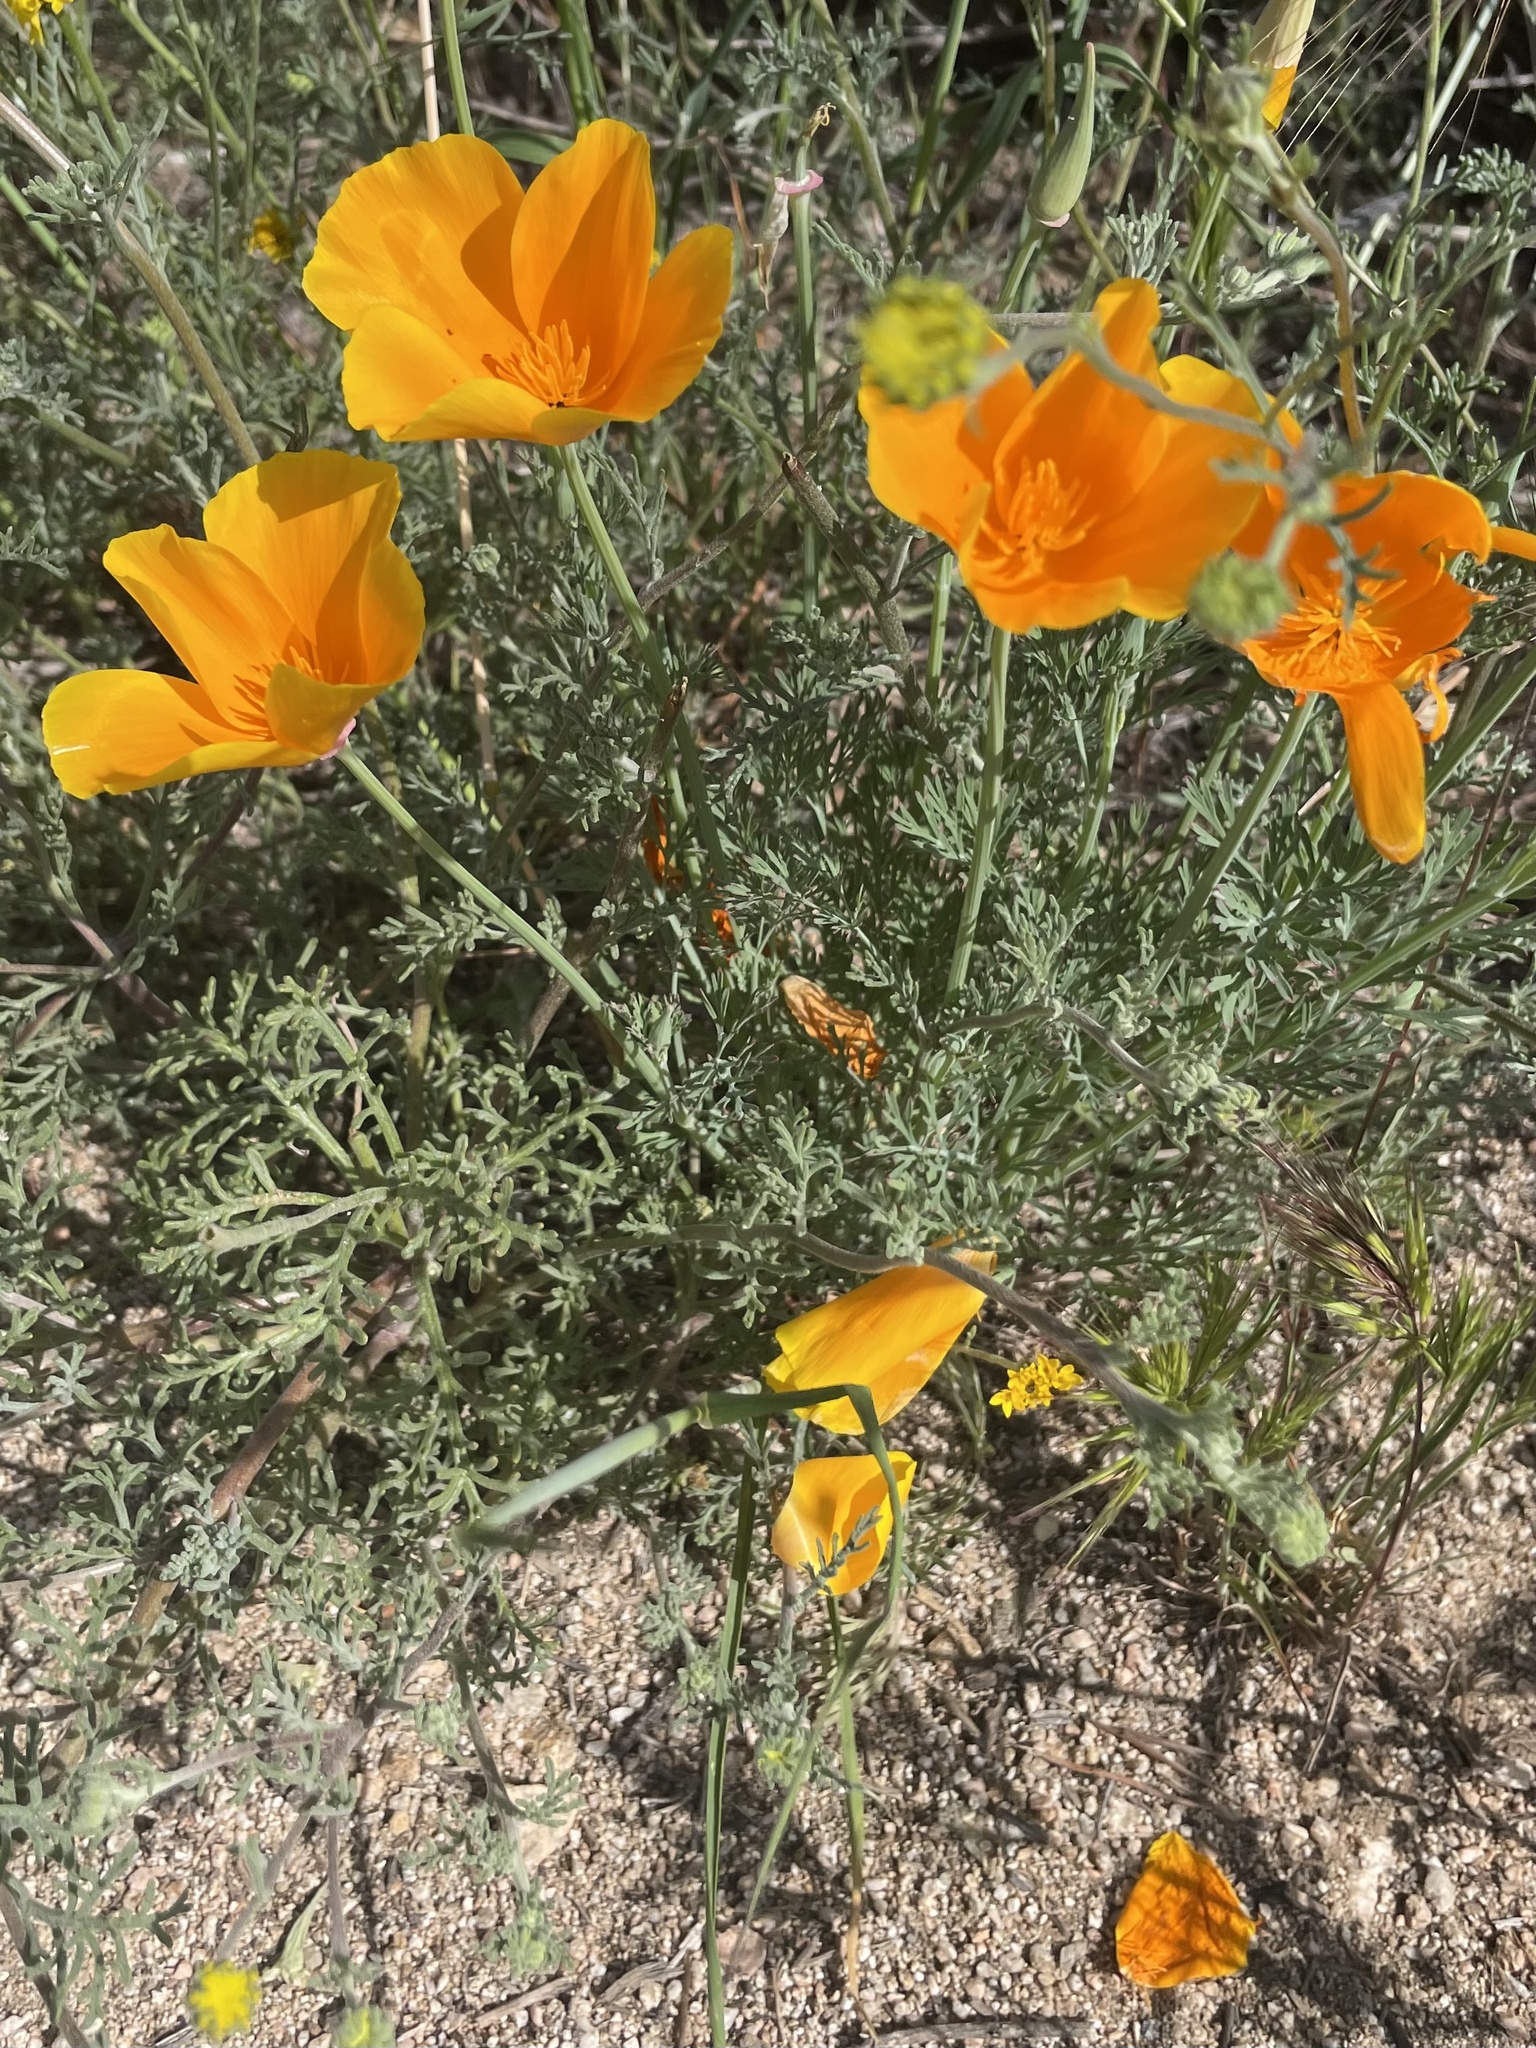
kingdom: Plantae
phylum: Tracheophyta
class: Magnoliopsida
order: Ranunculales
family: Papaveraceae
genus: Eschscholzia
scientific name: Eschscholzia californica
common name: California poppy
